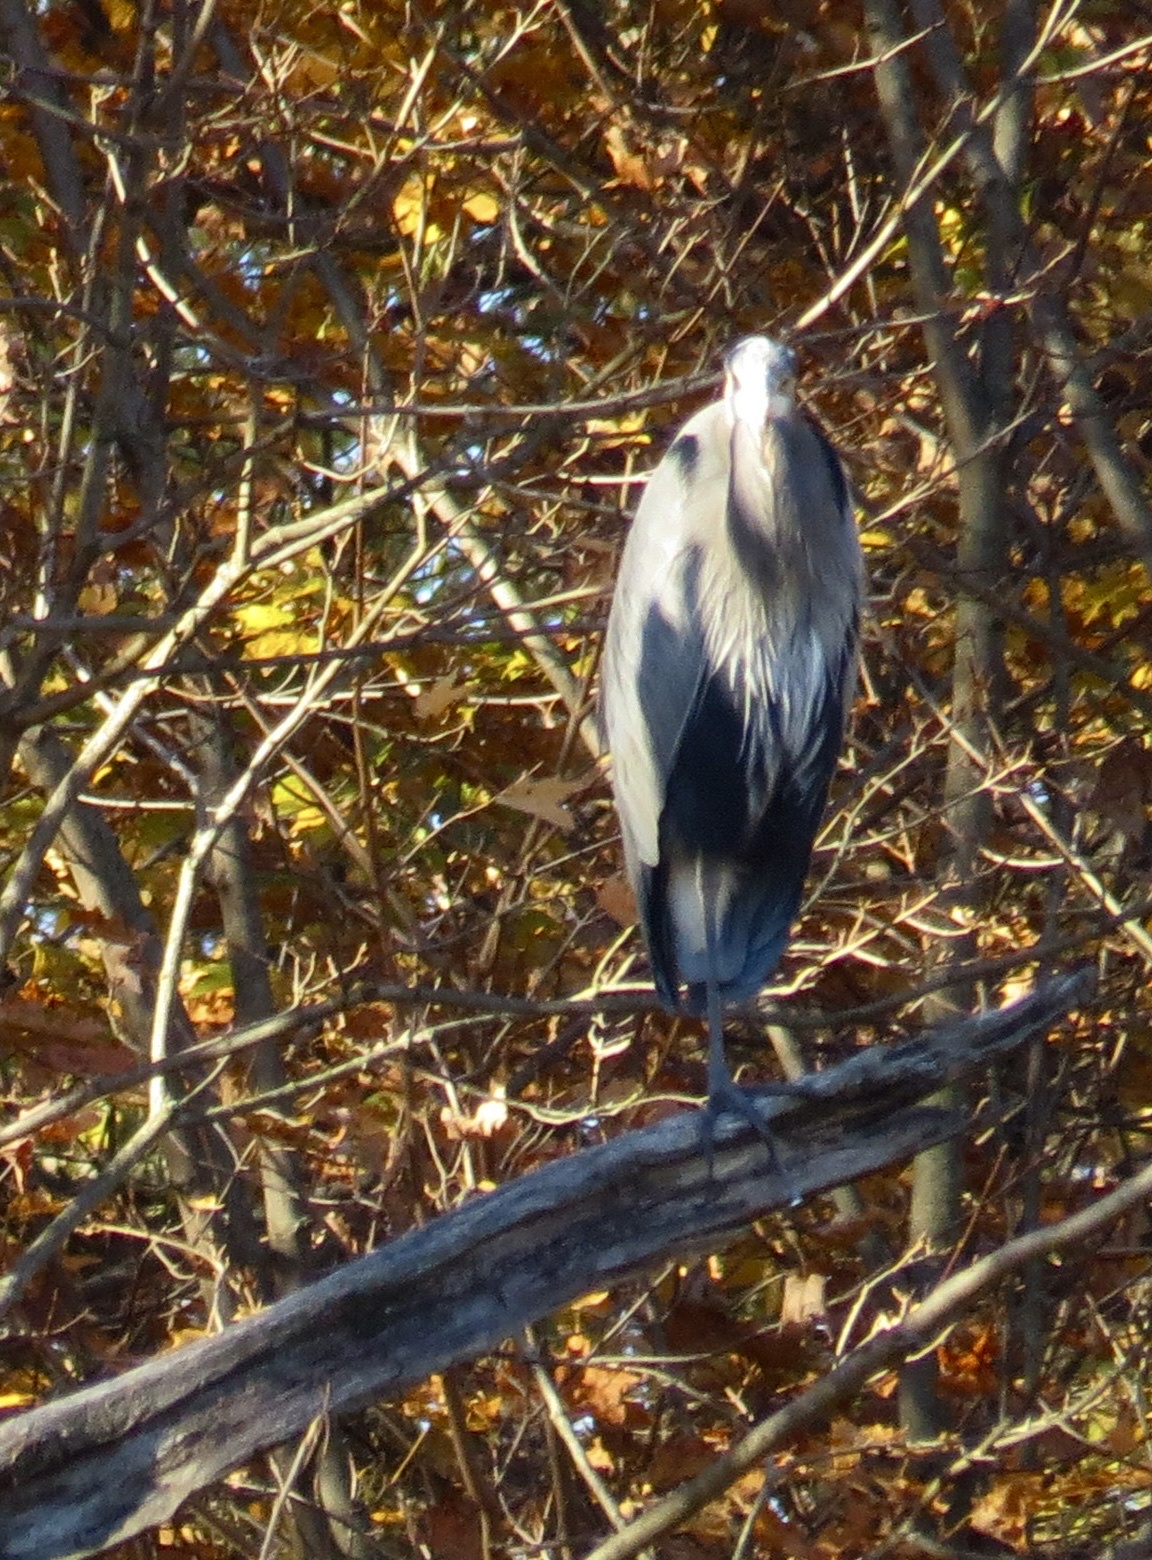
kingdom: Animalia
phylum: Chordata
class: Aves
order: Pelecaniformes
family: Ardeidae
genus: Ardea
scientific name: Ardea herodias
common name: Great blue heron
